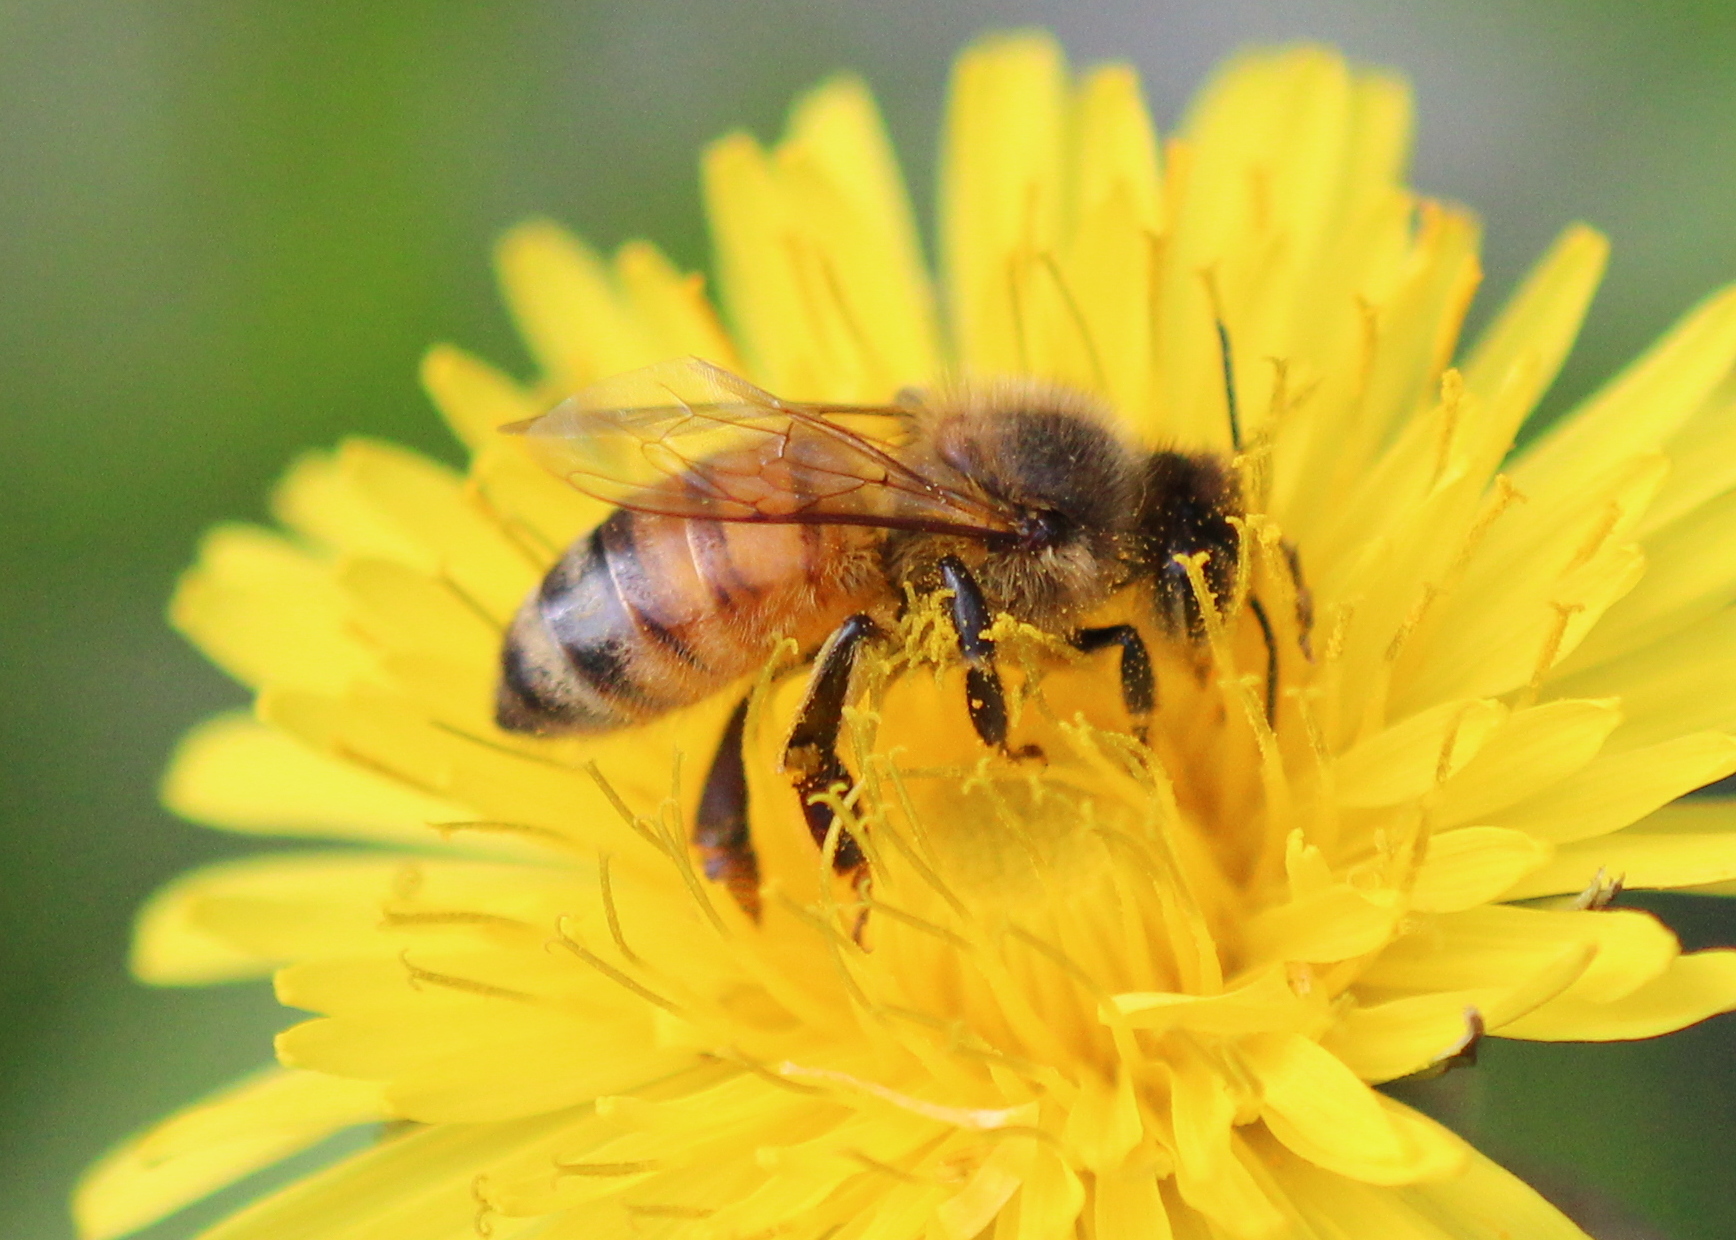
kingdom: Animalia
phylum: Arthropoda
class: Insecta
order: Hymenoptera
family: Apidae
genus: Apis
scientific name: Apis mellifera
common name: Honey bee
